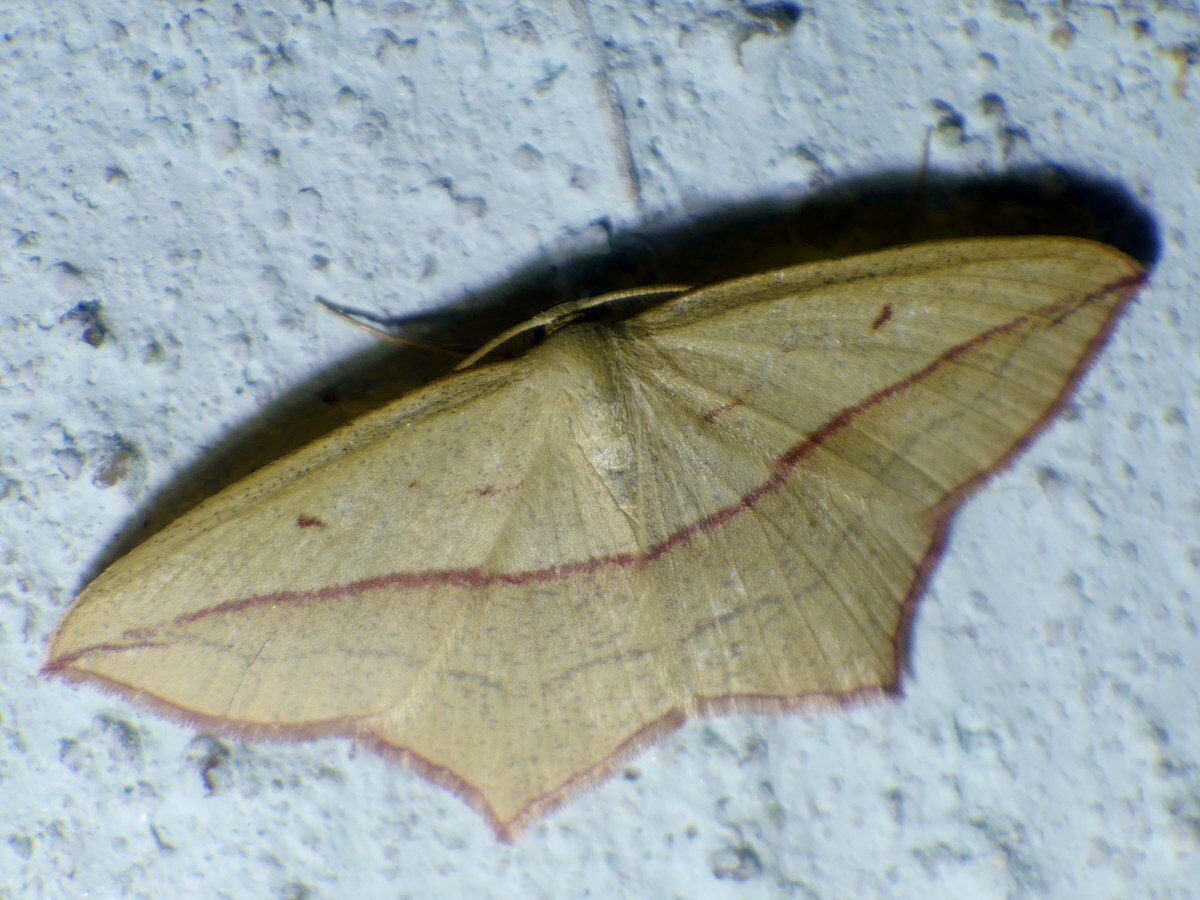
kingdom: Animalia
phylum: Arthropoda
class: Insecta
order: Lepidoptera
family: Geometridae
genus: Timandra
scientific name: Timandra comae
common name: Blood-vein
